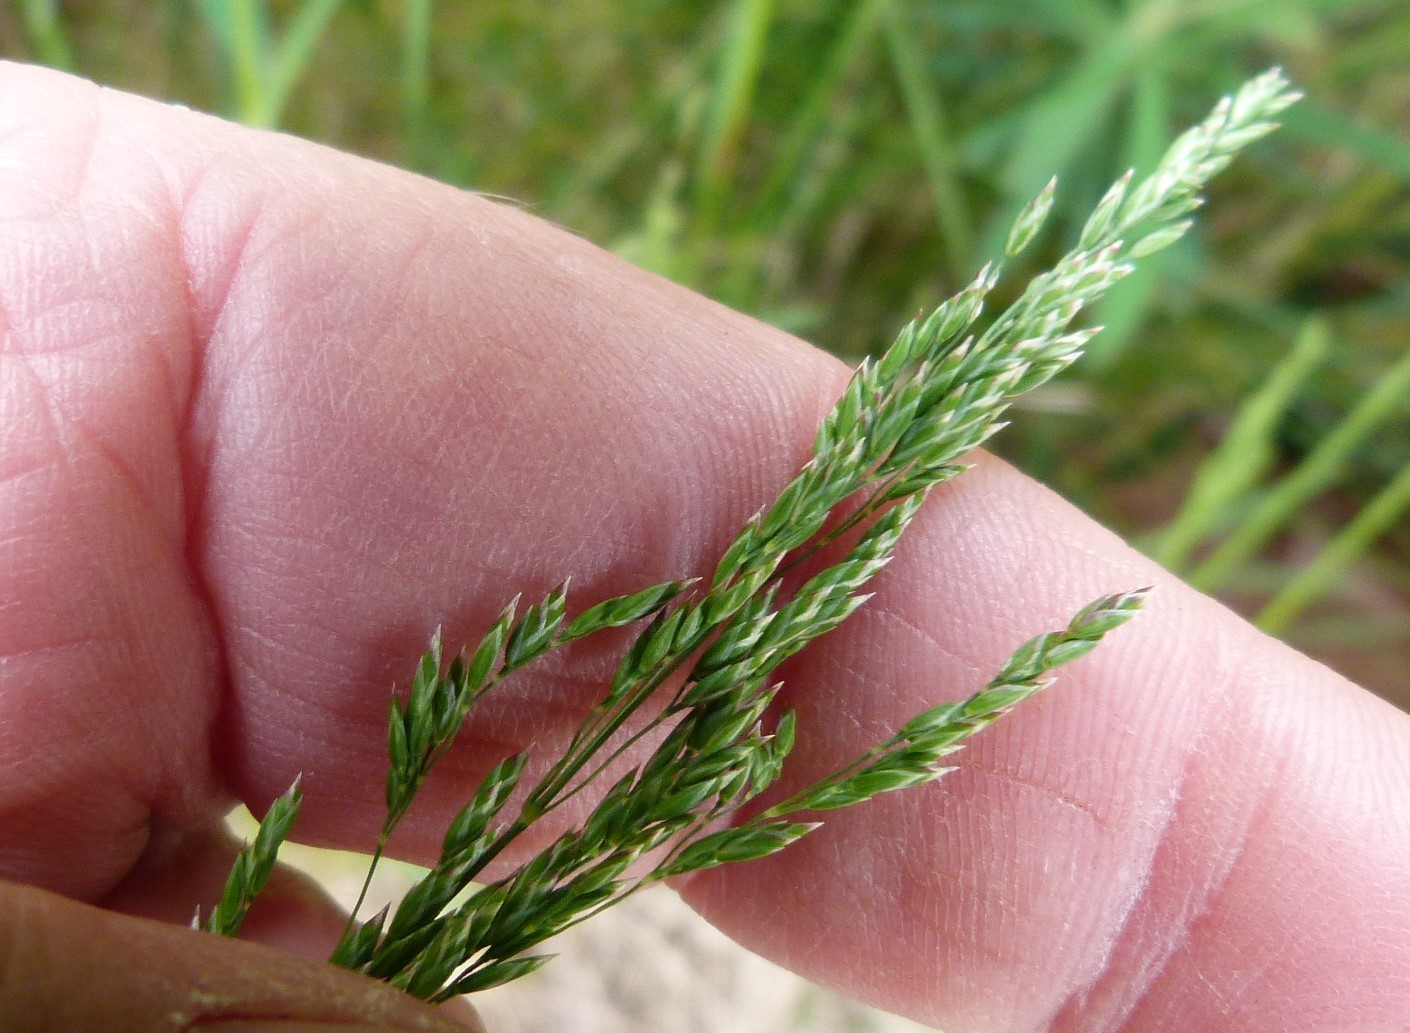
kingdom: Plantae
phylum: Tracheophyta
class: Liliopsida
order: Poales
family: Poaceae
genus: Poa
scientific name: Poa pratensis
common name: Kentucky bluegrass
